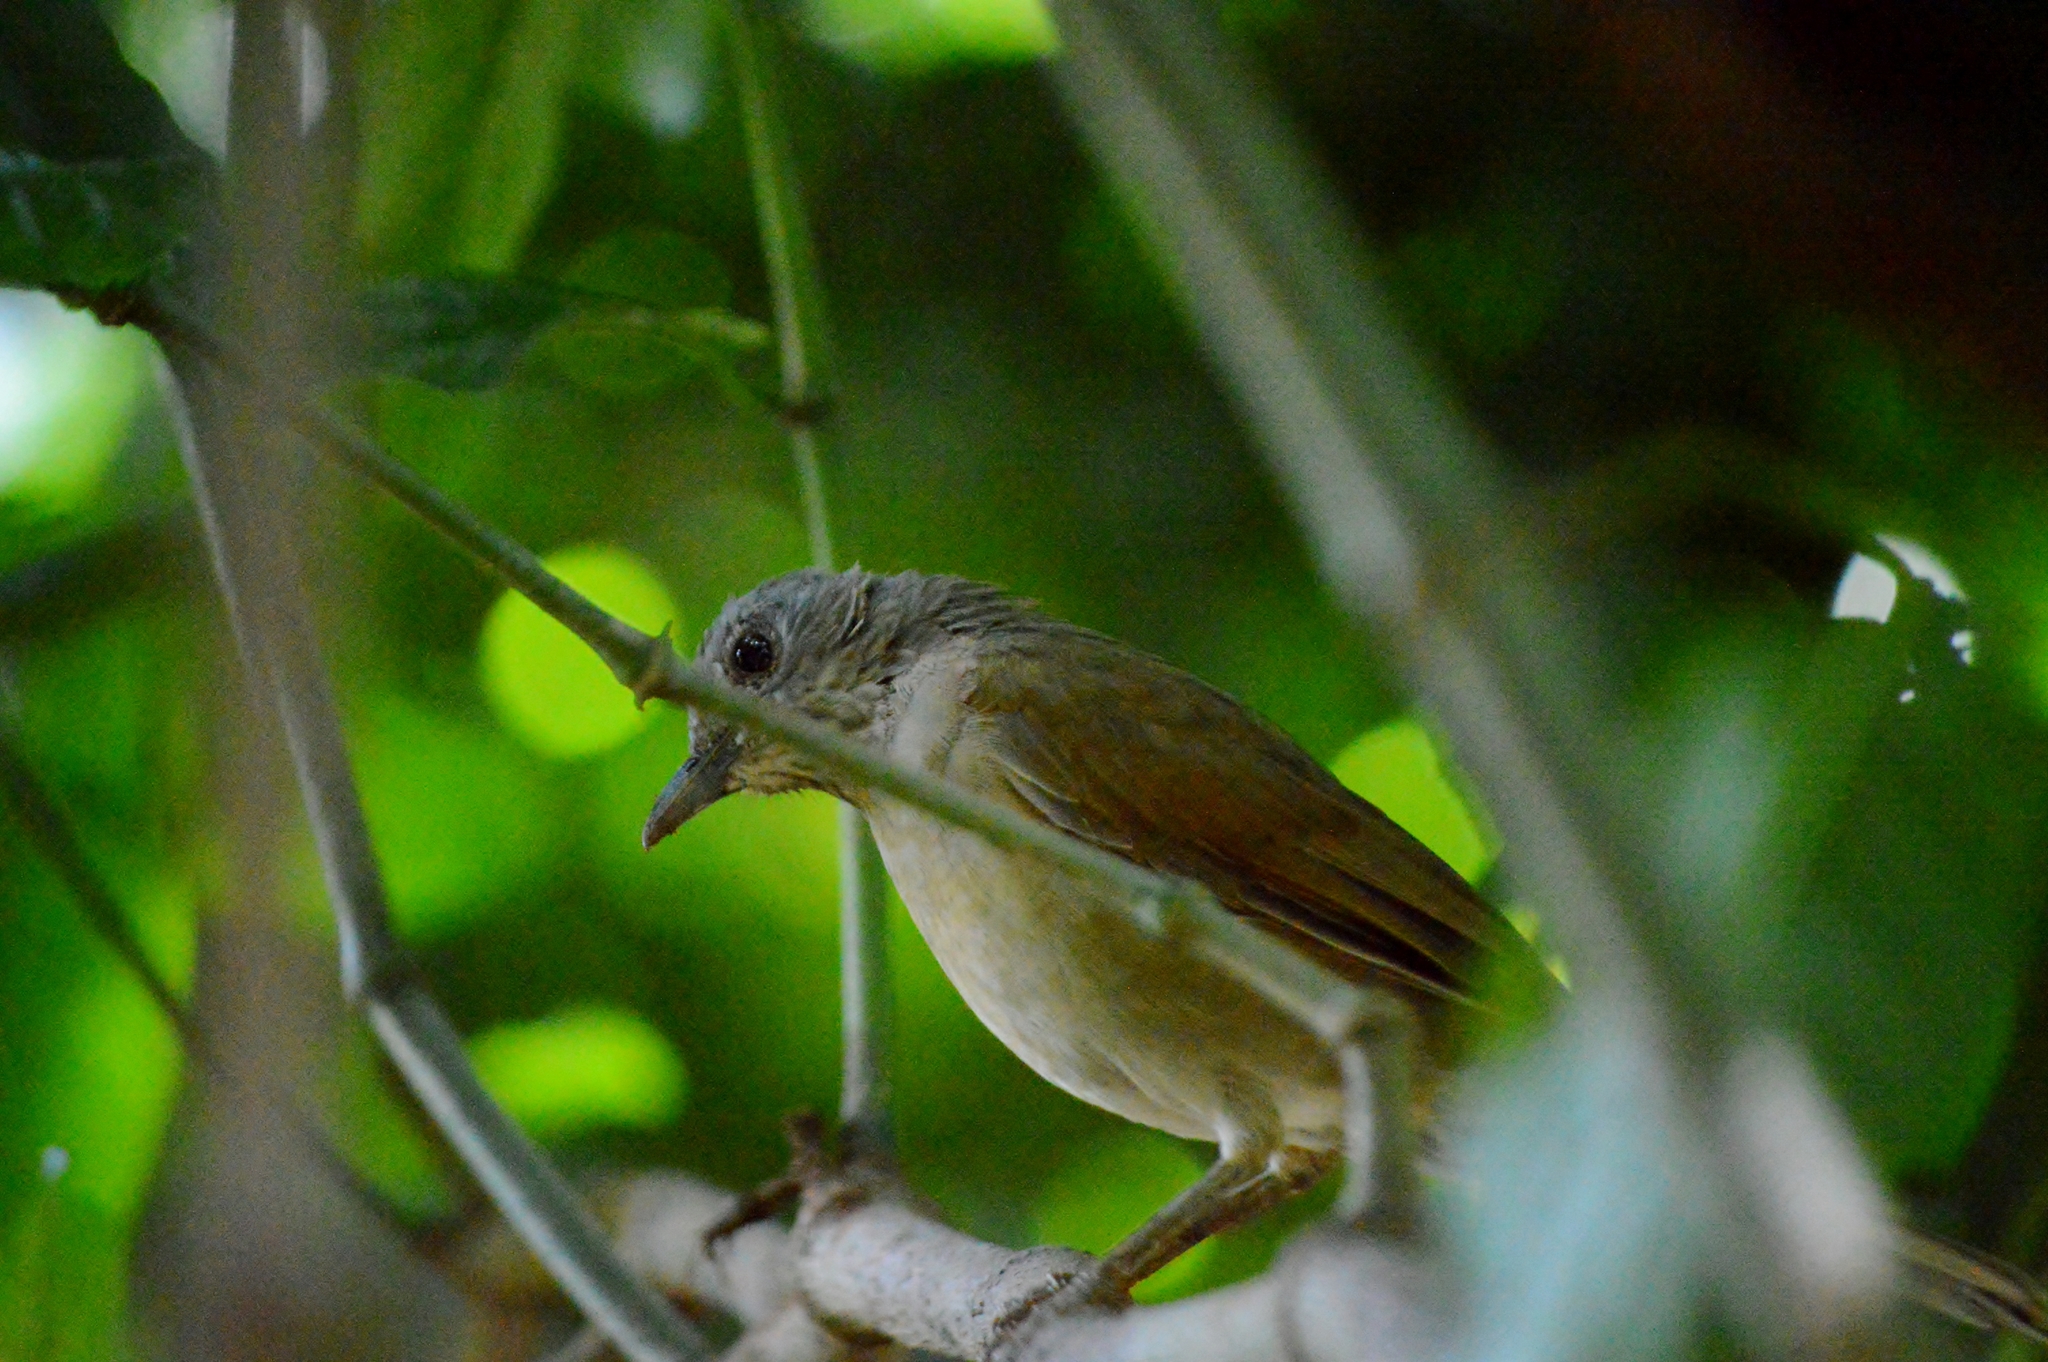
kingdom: Animalia
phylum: Chordata
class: Aves
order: Passeriformes
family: Turdidae
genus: Turdus
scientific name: Turdus leucomelas
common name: Pale-breasted thrush
